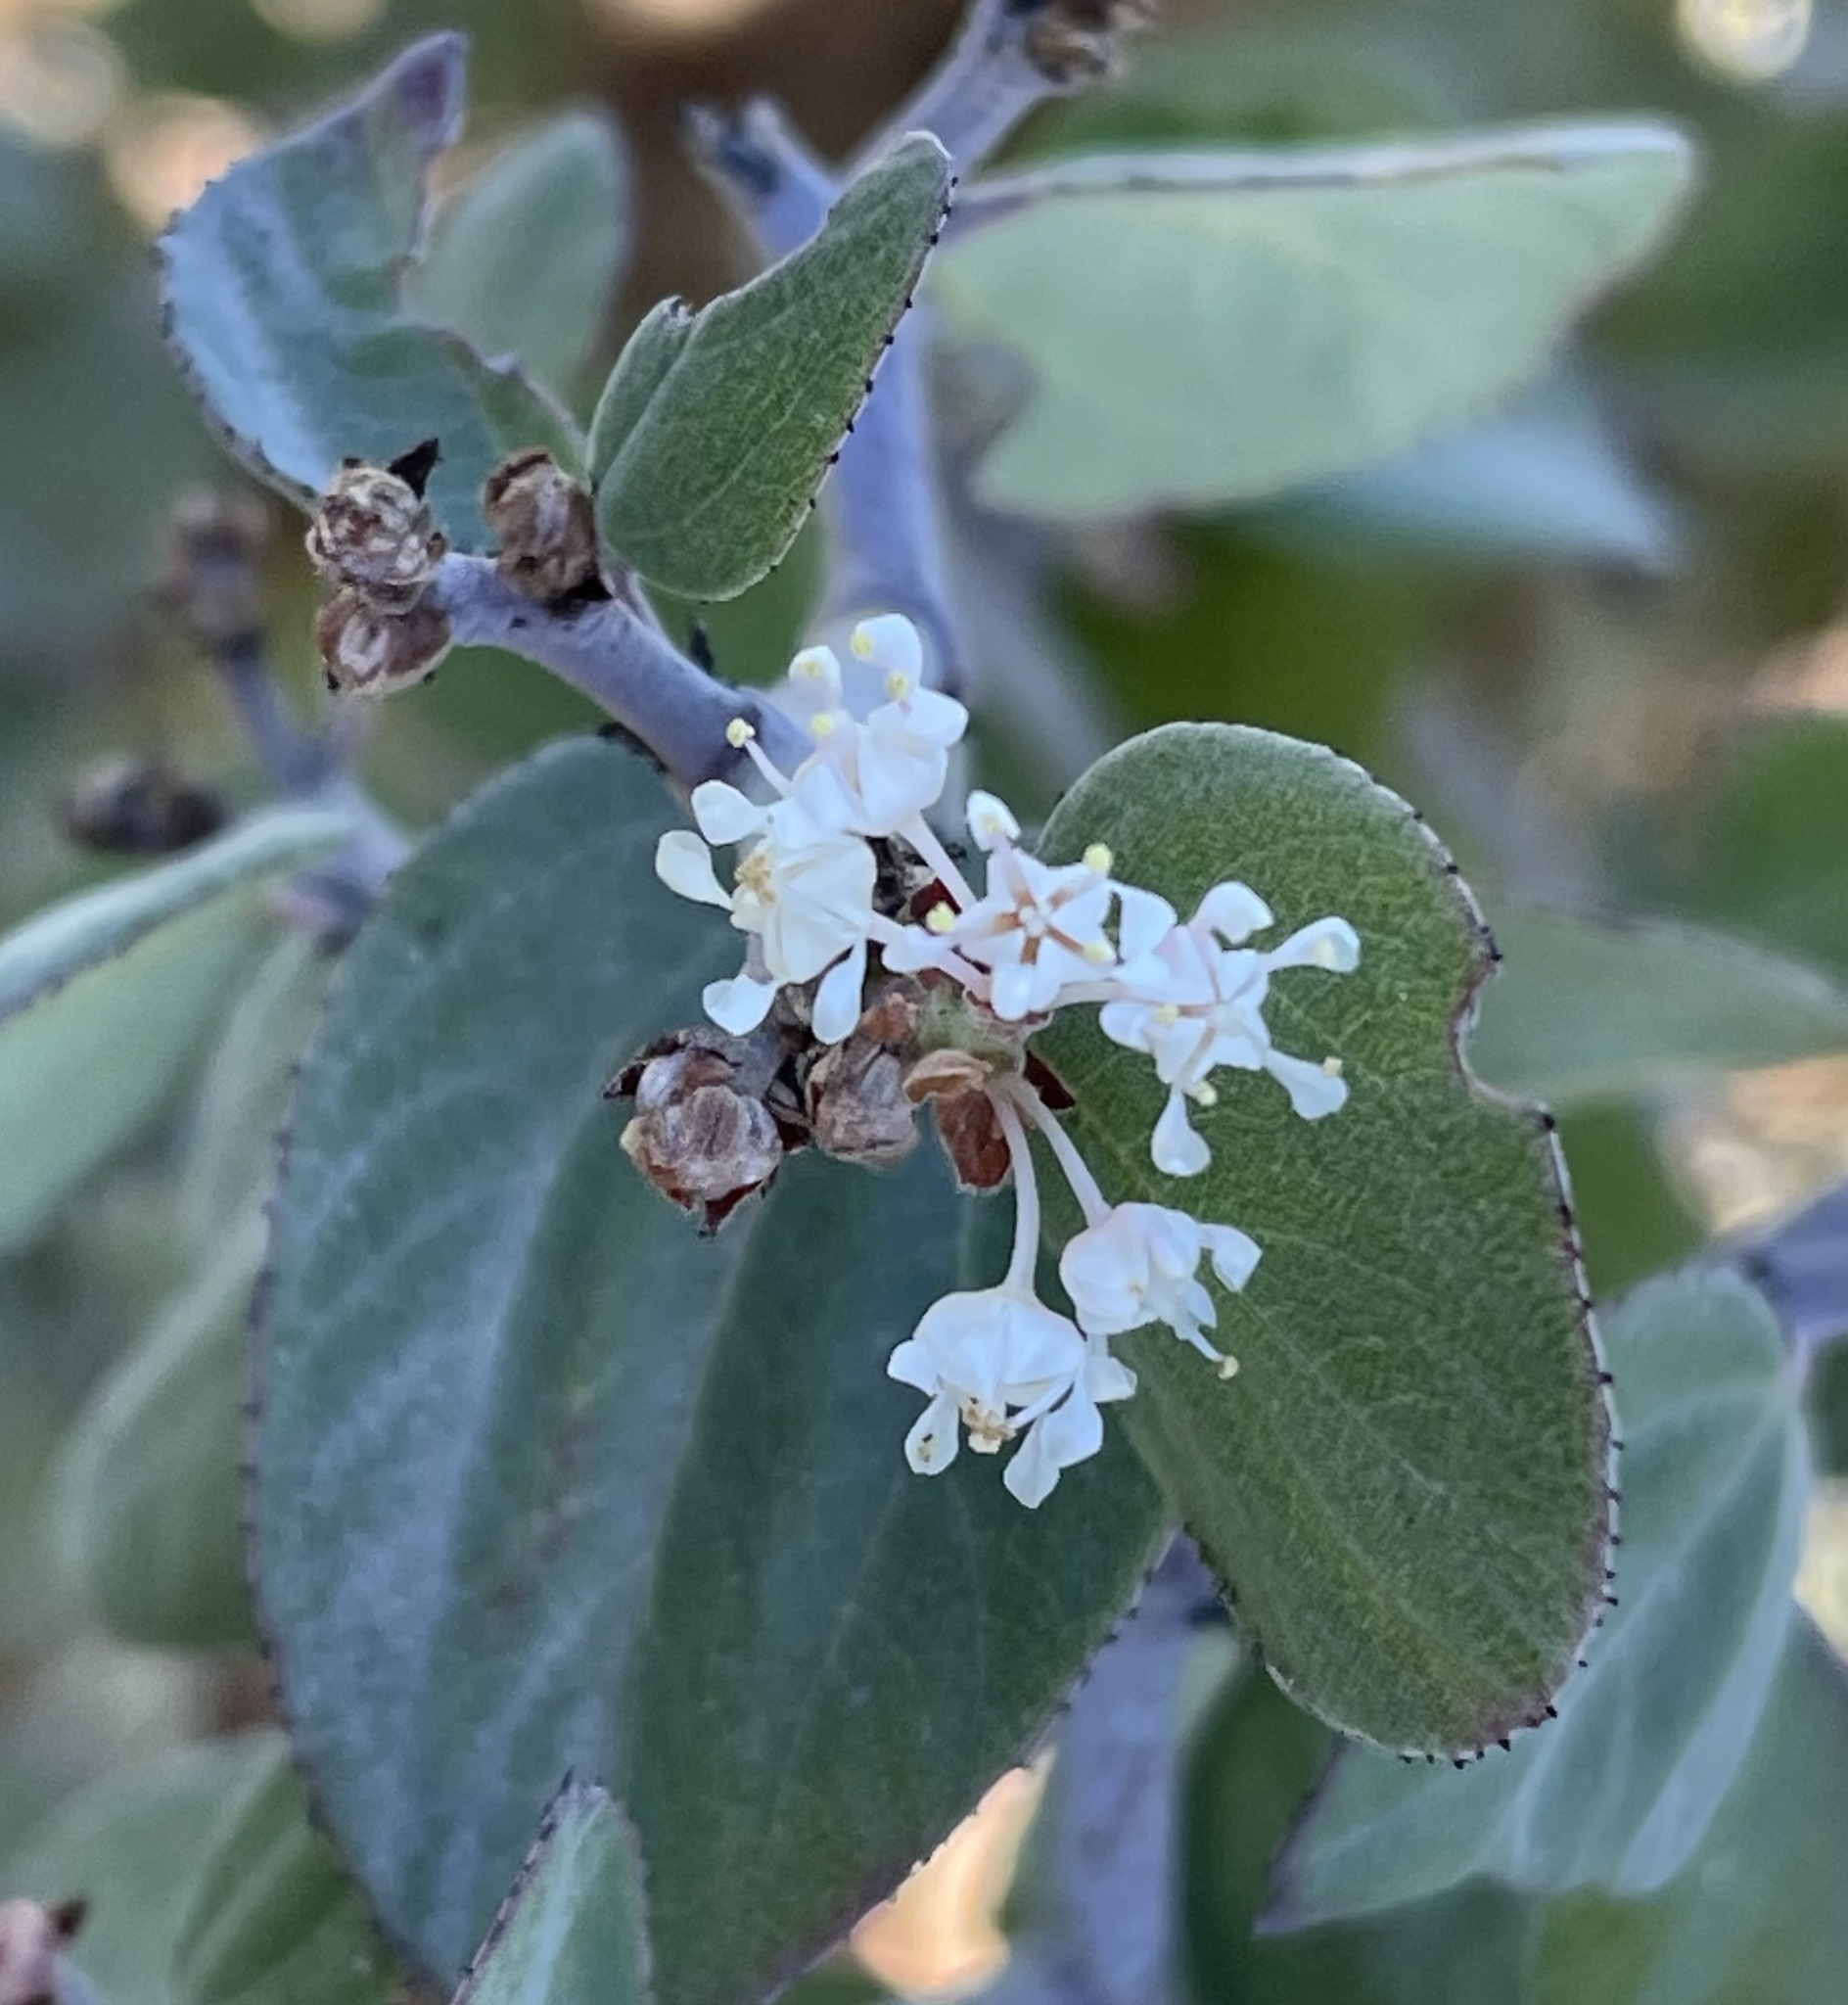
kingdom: Plantae
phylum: Tracheophyta
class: Magnoliopsida
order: Rosales
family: Rhamnaceae
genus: Ceanothus
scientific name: Ceanothus incanus
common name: Coast whitethorn
